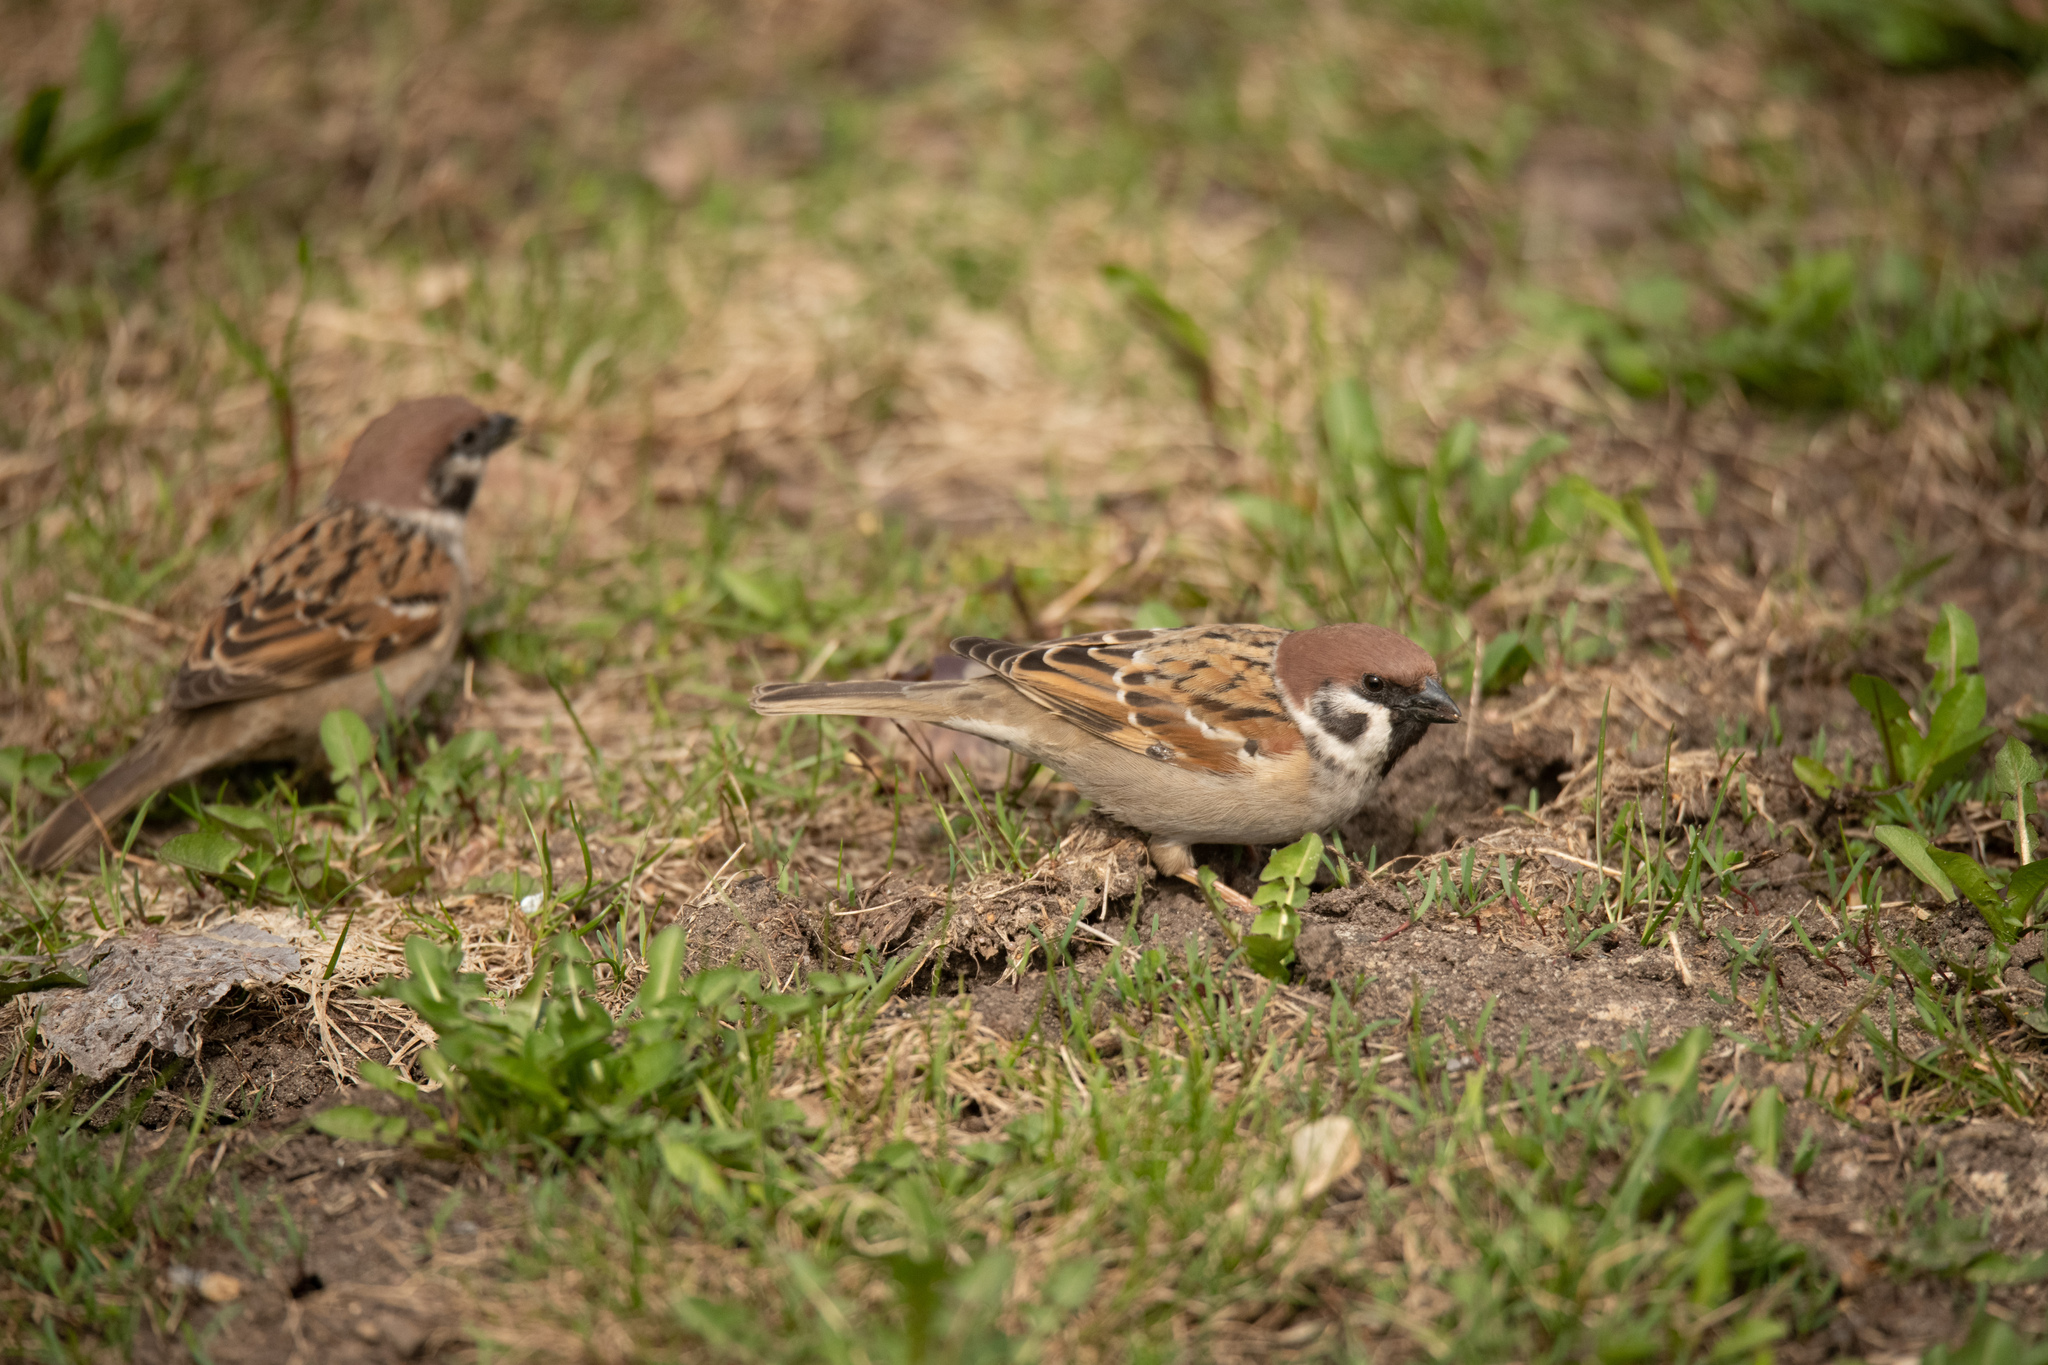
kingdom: Animalia
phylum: Chordata
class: Aves
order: Passeriformes
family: Passeridae
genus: Passer
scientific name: Passer montanus
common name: Eurasian tree sparrow
